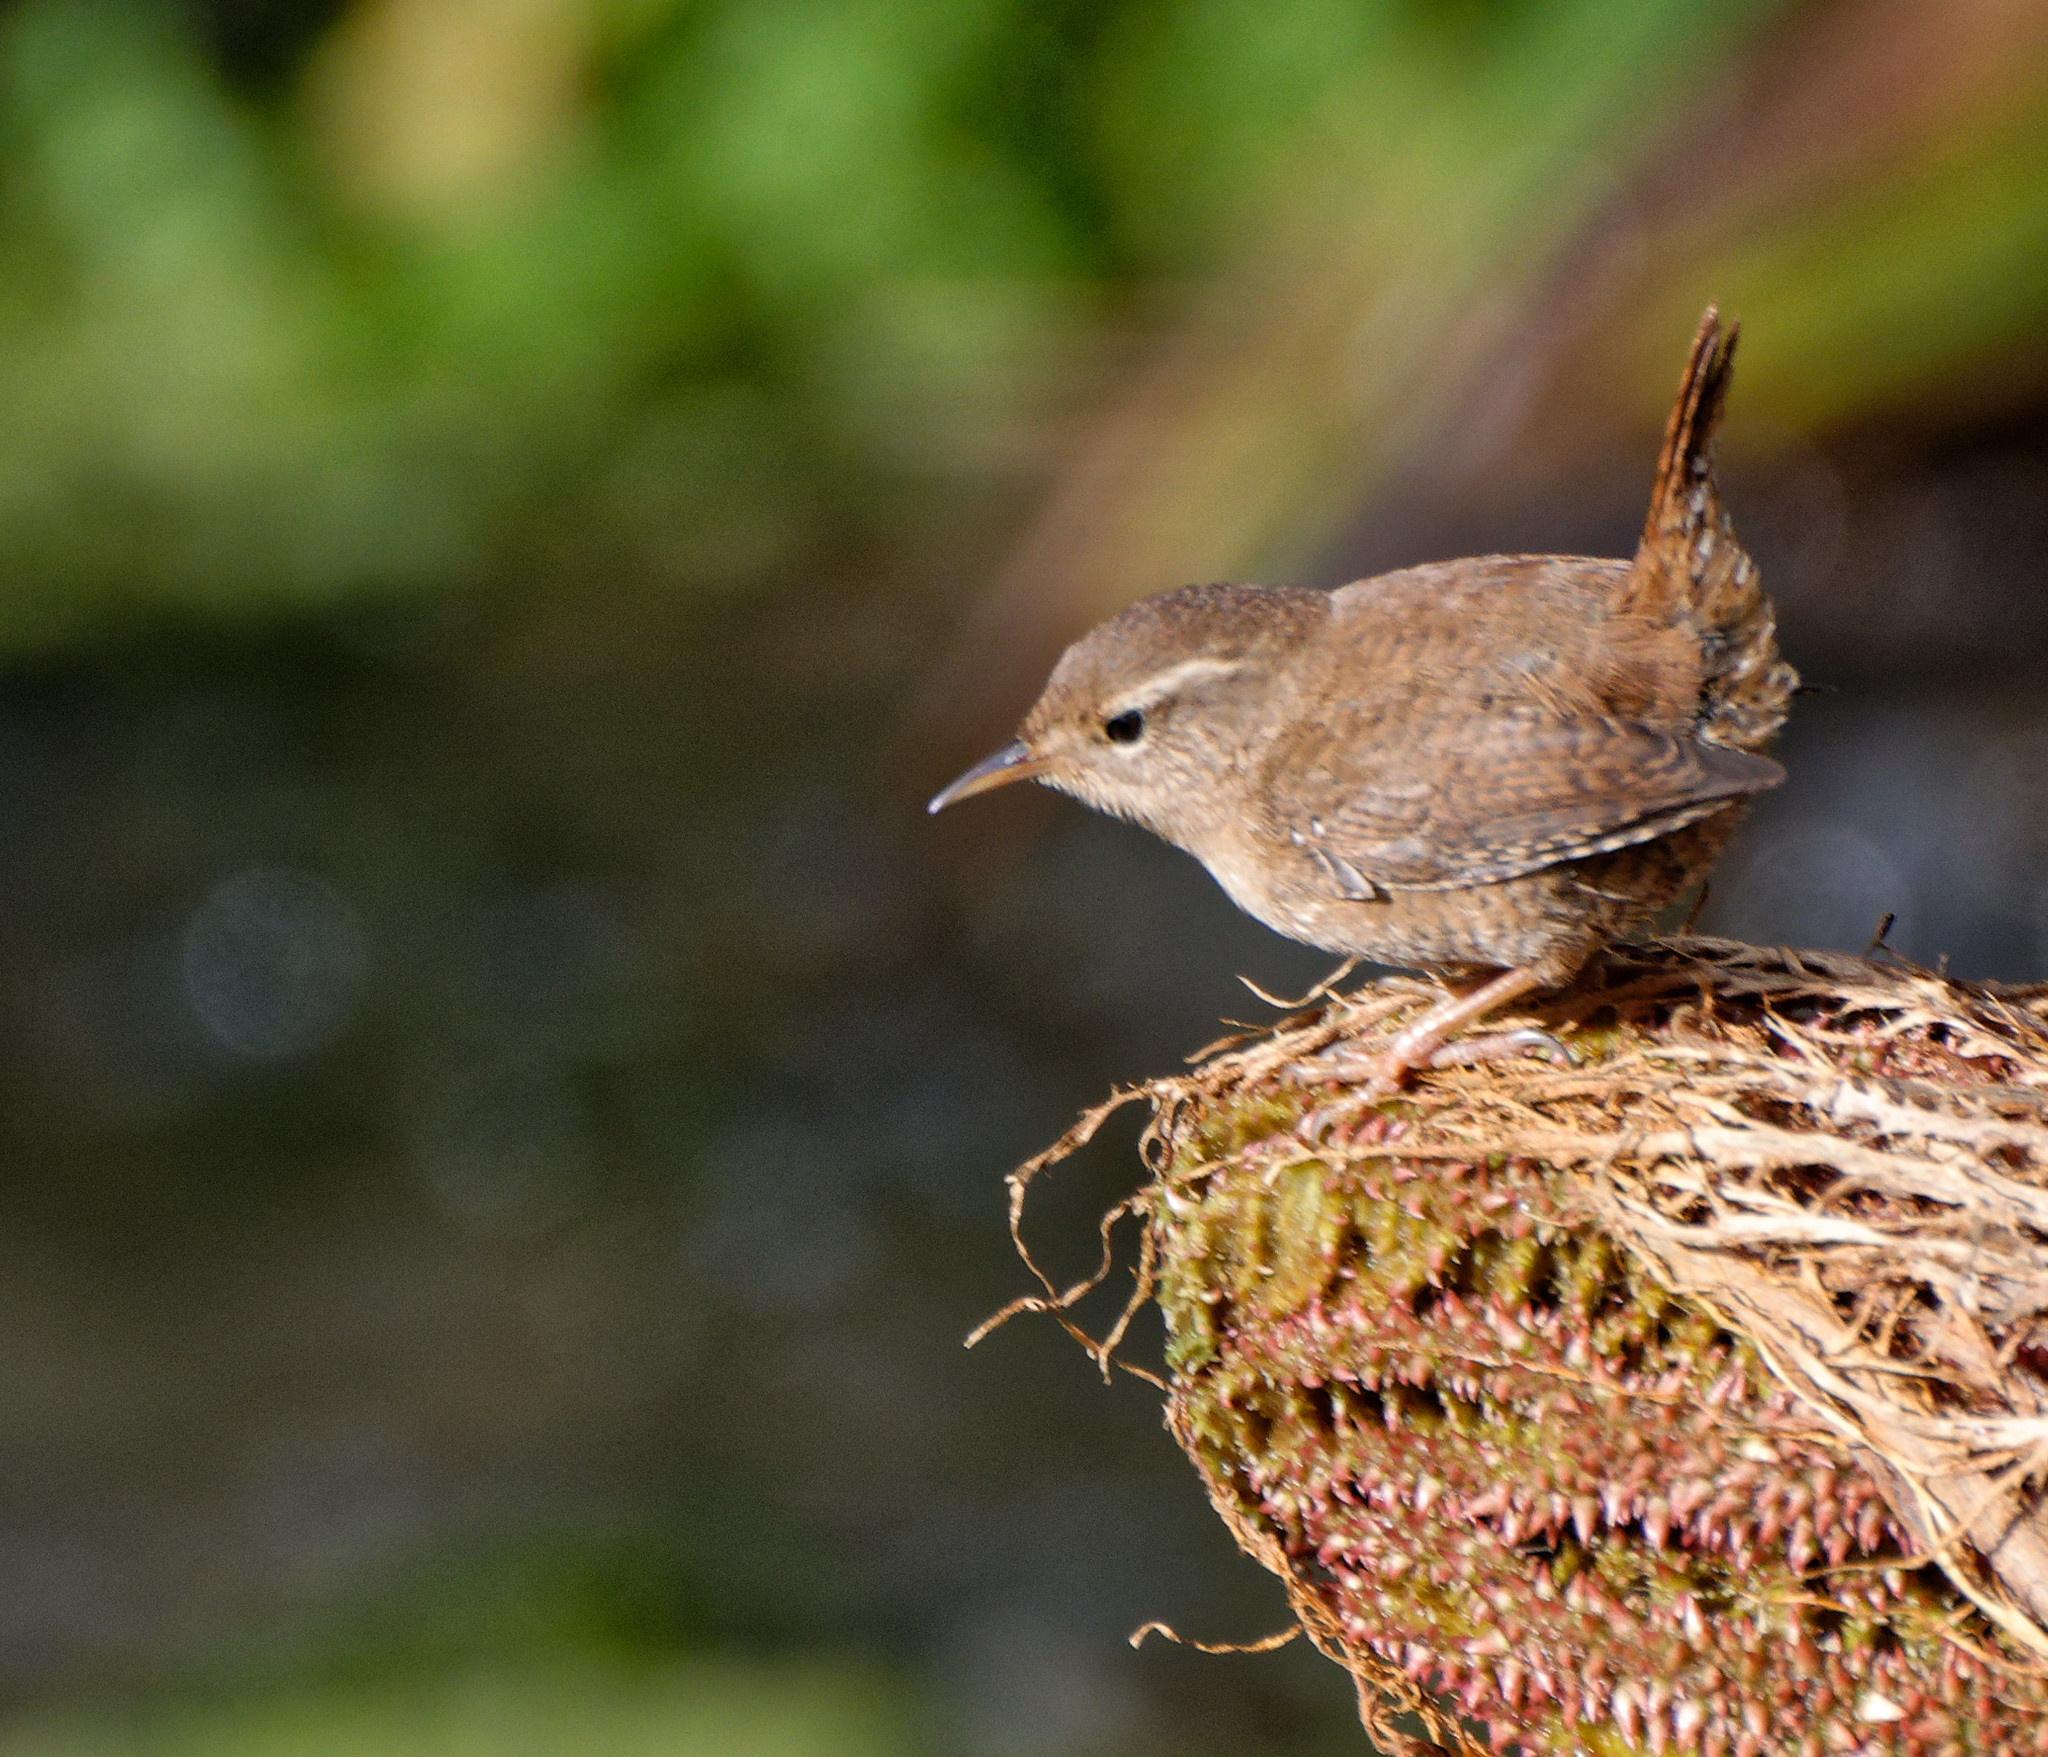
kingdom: Animalia
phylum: Chordata
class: Aves
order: Passeriformes
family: Troglodytidae
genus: Troglodytes
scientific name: Troglodytes troglodytes
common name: Eurasian wren
